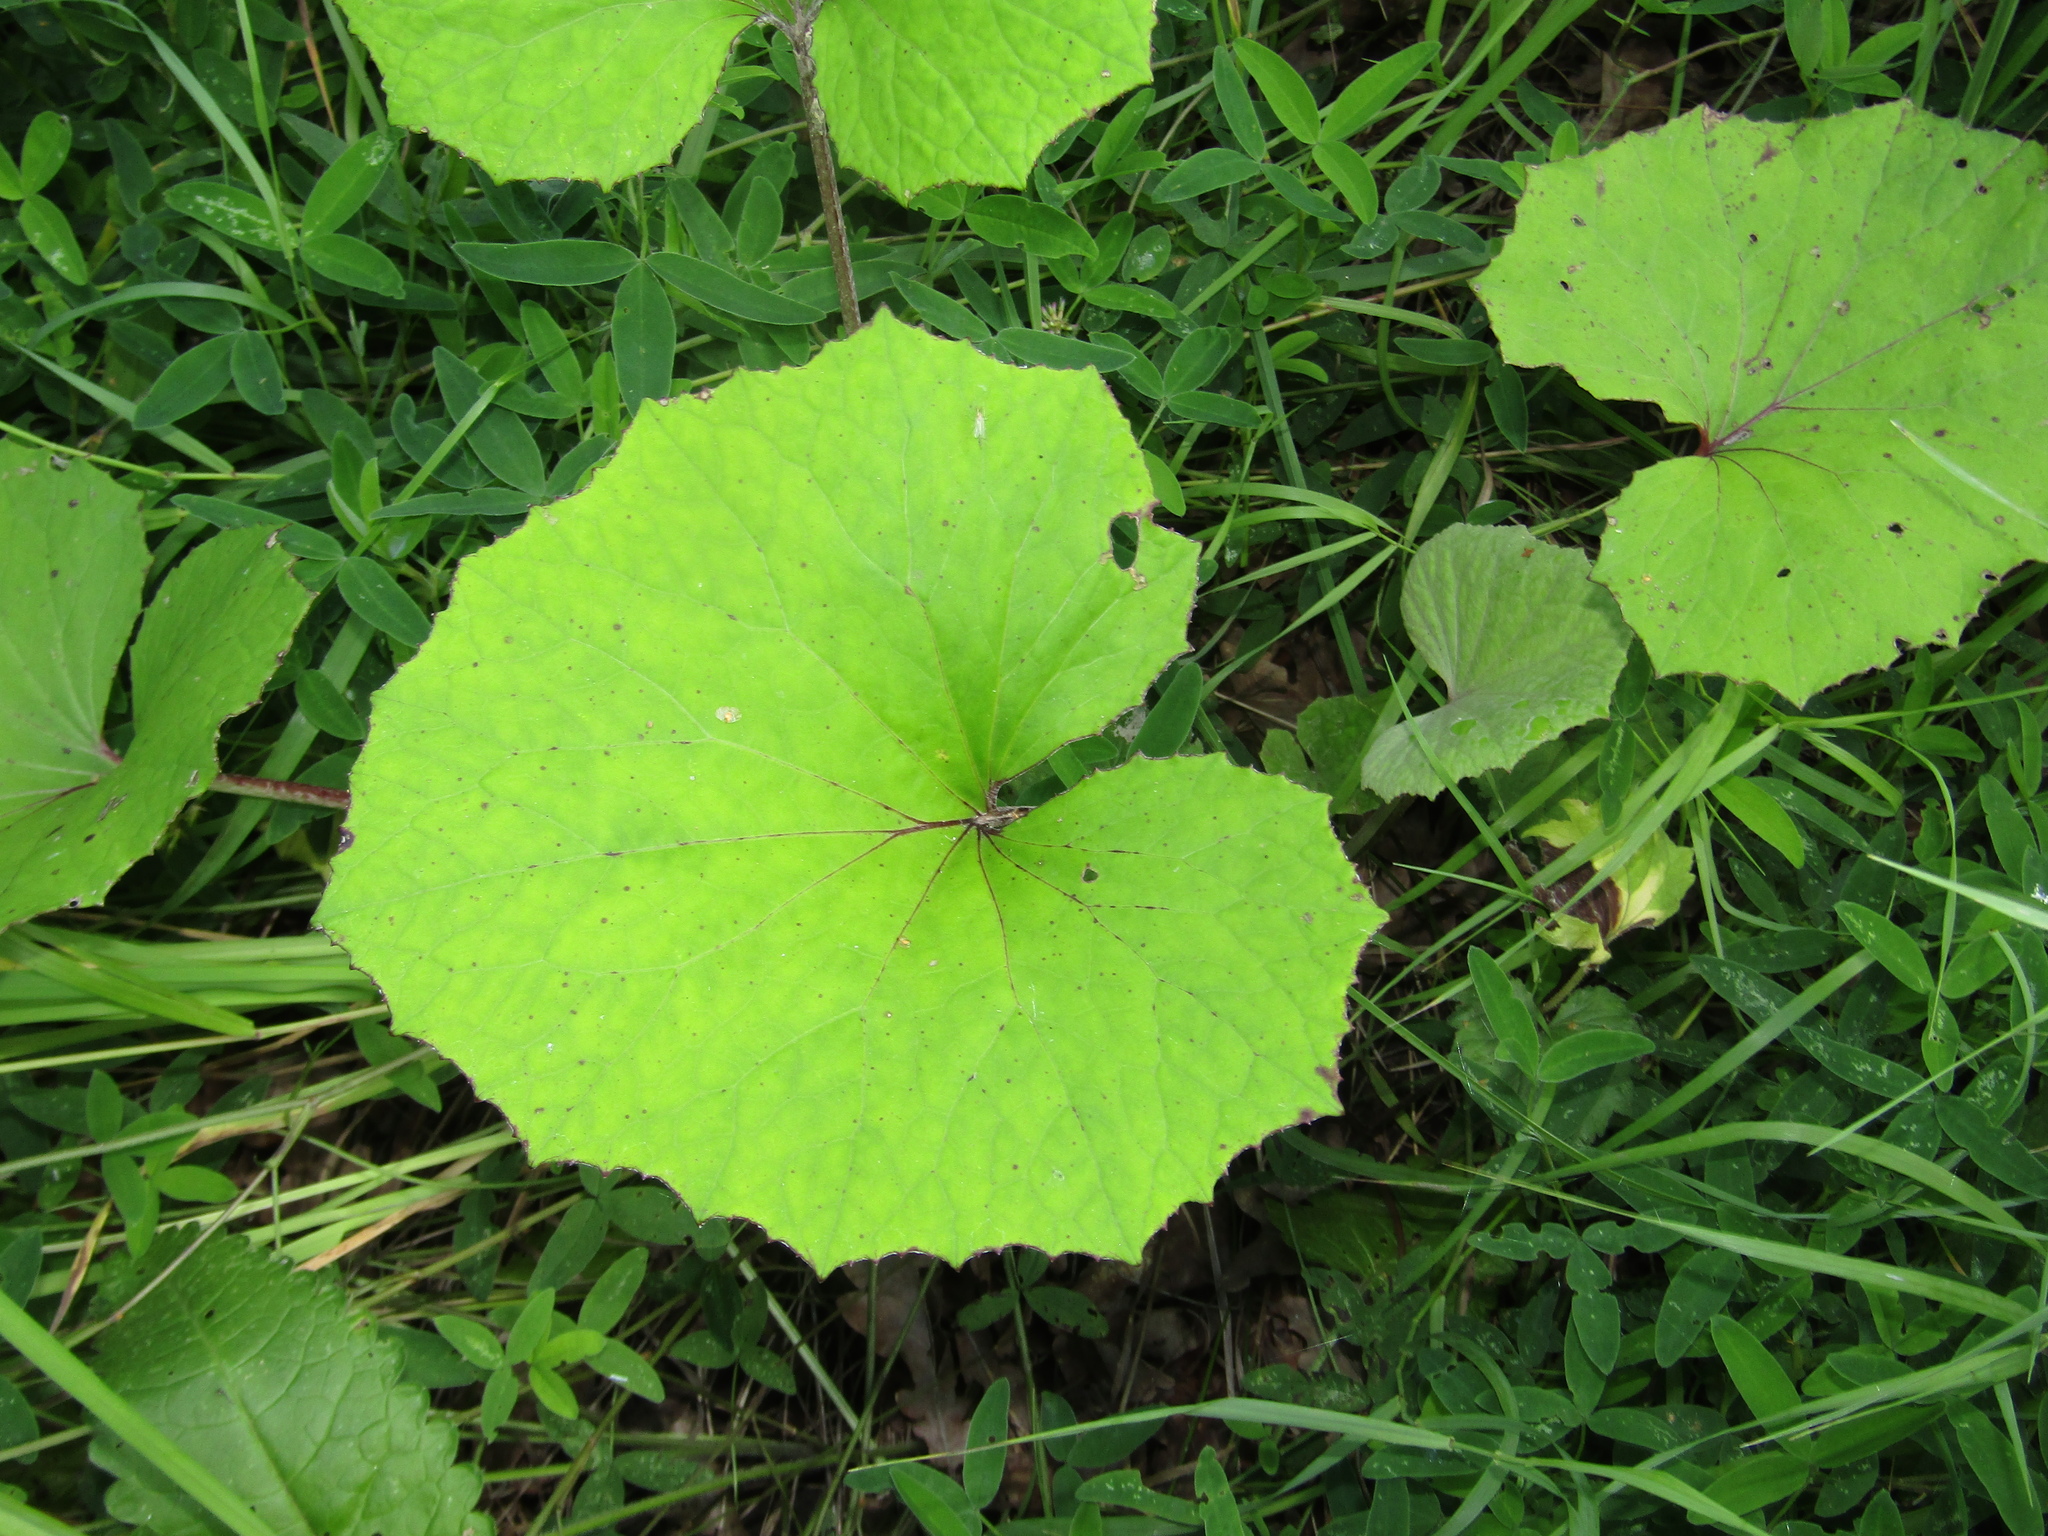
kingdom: Plantae
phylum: Tracheophyta
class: Magnoliopsida
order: Asterales
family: Asteraceae
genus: Tussilago
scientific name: Tussilago farfara
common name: Coltsfoot
